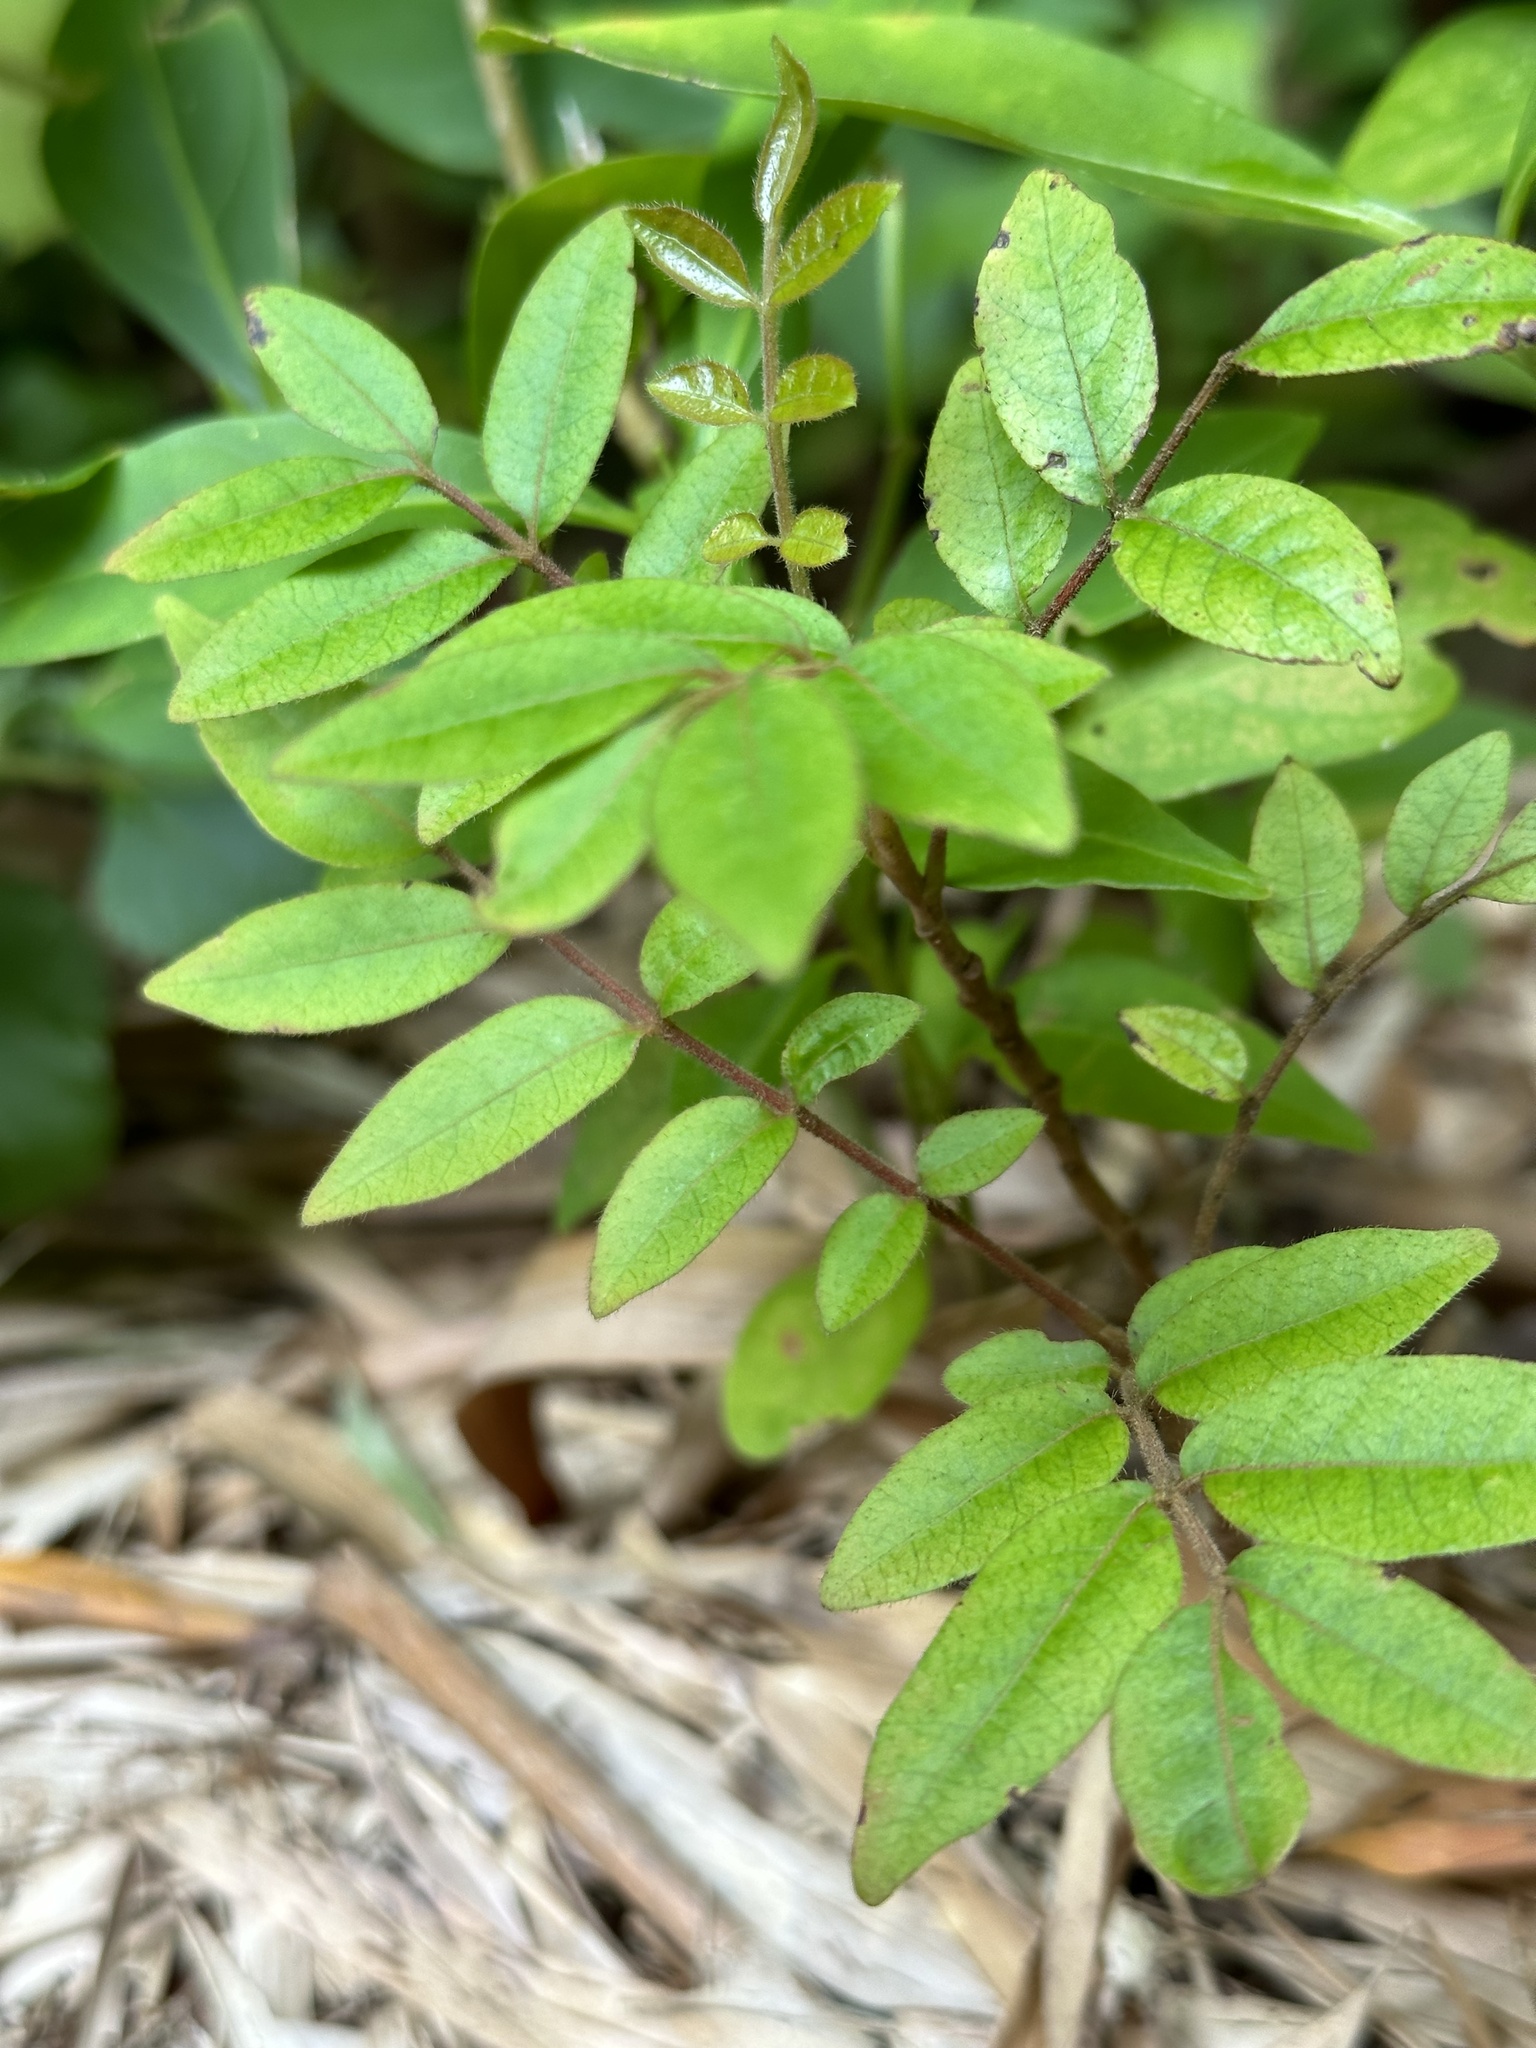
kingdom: Plantae
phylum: Tracheophyta
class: Magnoliopsida
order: Sapindales
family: Anacardiaceae
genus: Schinus
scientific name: Schinus terebinthifolia
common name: Brazilian peppertree
